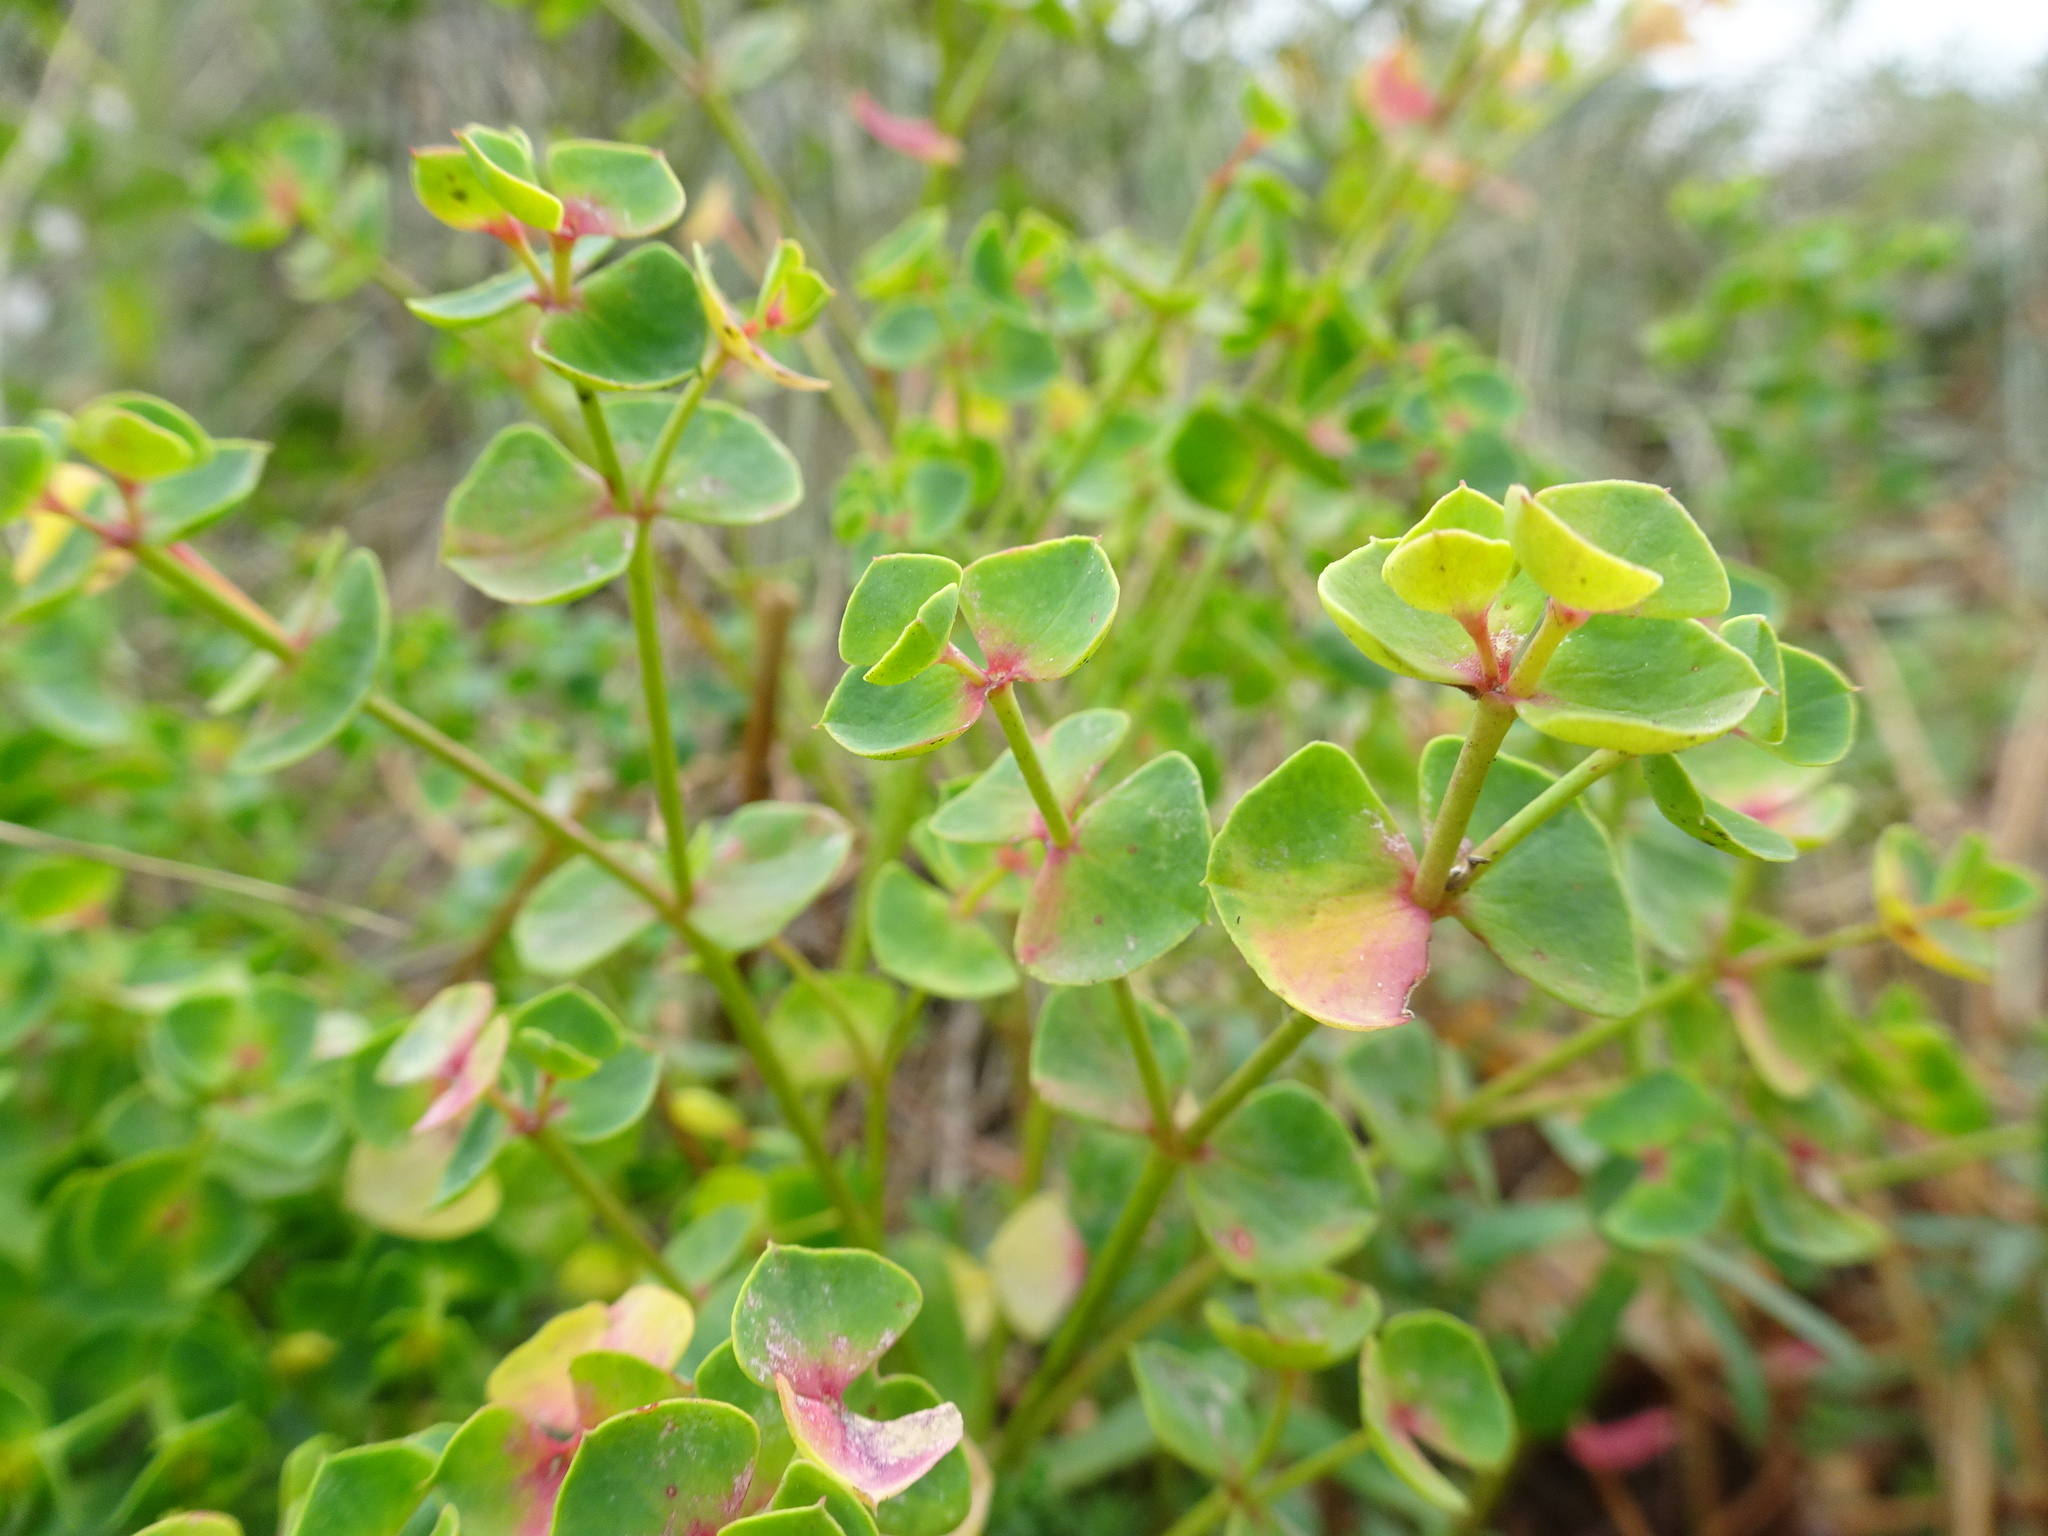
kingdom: Plantae
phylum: Tracheophyta
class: Magnoliopsida
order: Malpighiales
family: Euphorbiaceae
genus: Euphorbia
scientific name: Euphorbia portlandica
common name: Portland spurge
